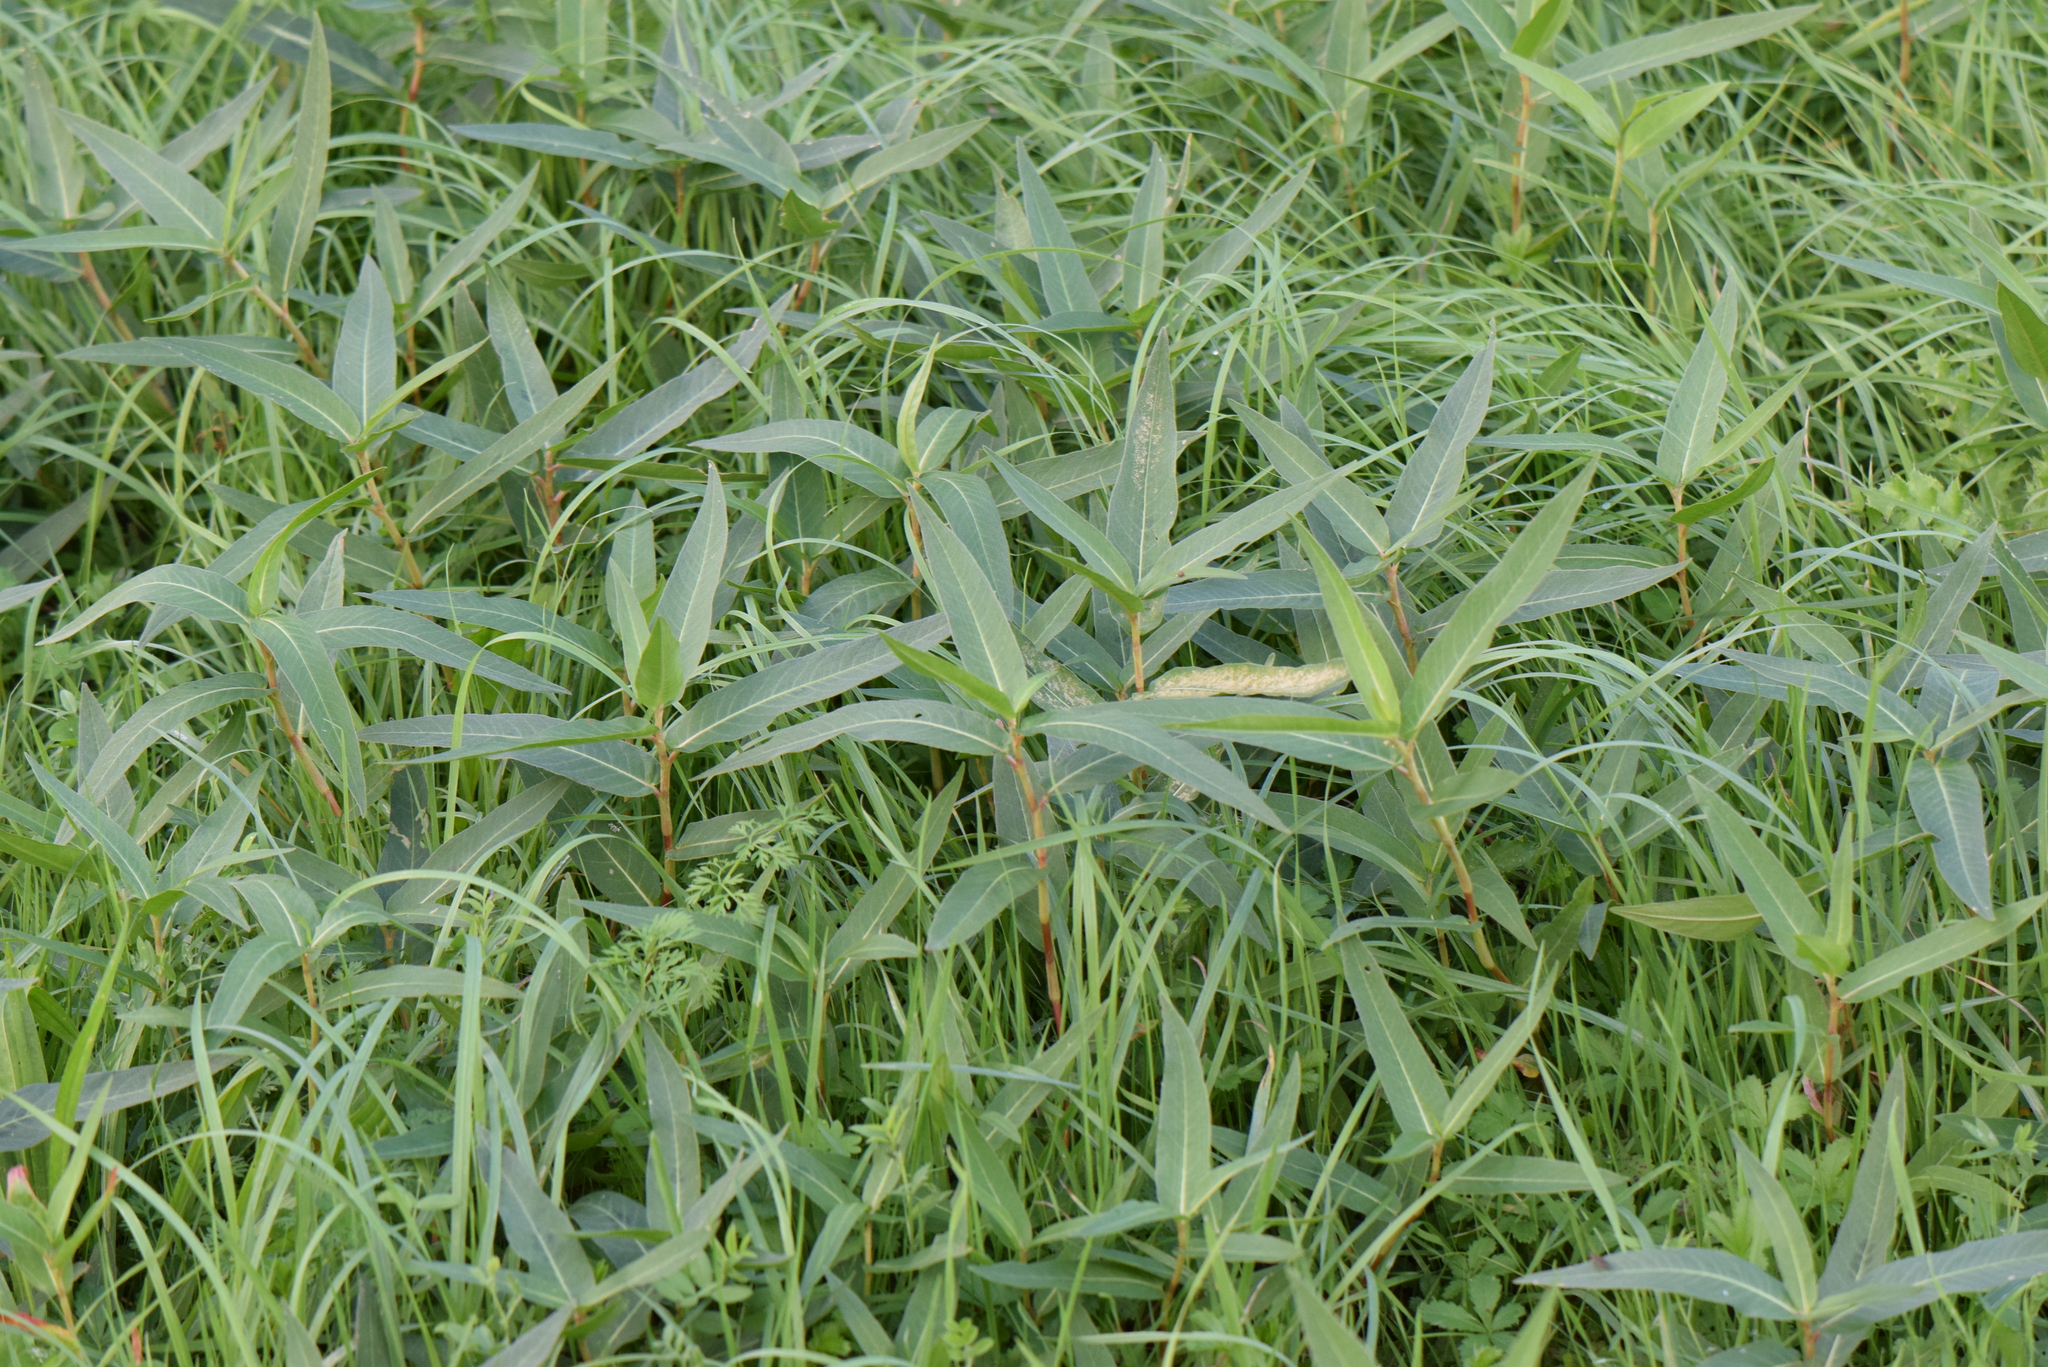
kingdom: Plantae
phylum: Tracheophyta
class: Magnoliopsida
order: Caryophyllales
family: Polygonaceae
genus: Persicaria
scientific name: Persicaria amphibia
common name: Amphibious bistort
